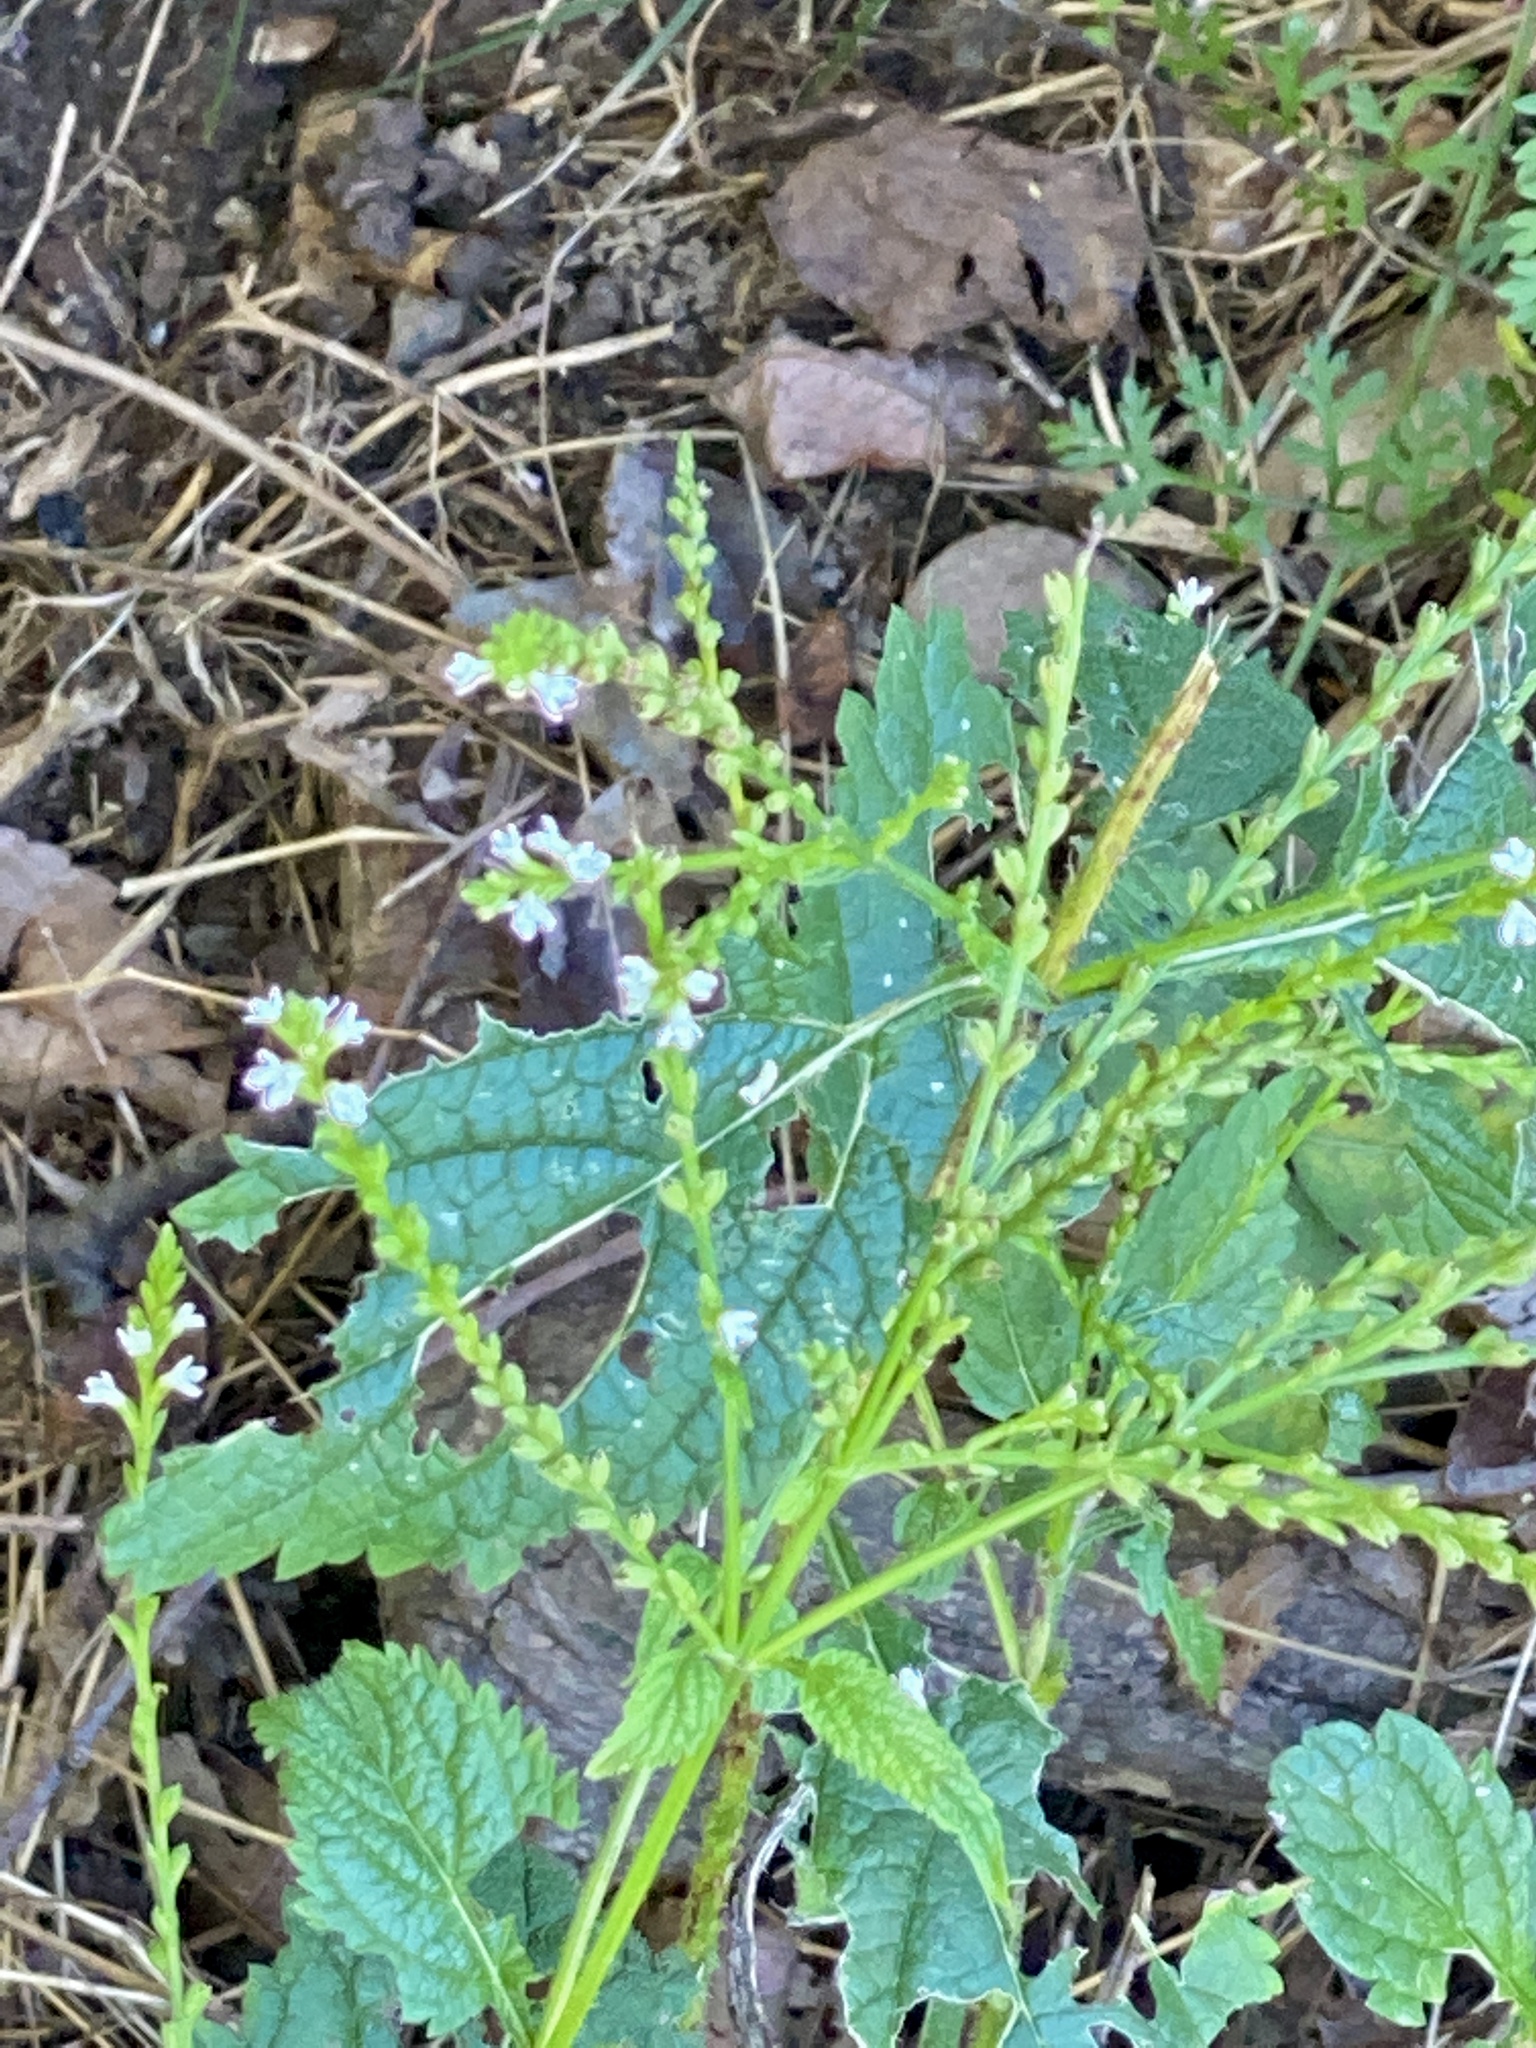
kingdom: Plantae
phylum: Tracheophyta
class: Magnoliopsida
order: Lamiales
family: Verbenaceae
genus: Verbena
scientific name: Verbena urticifolia
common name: Nettle-leaved vervain
